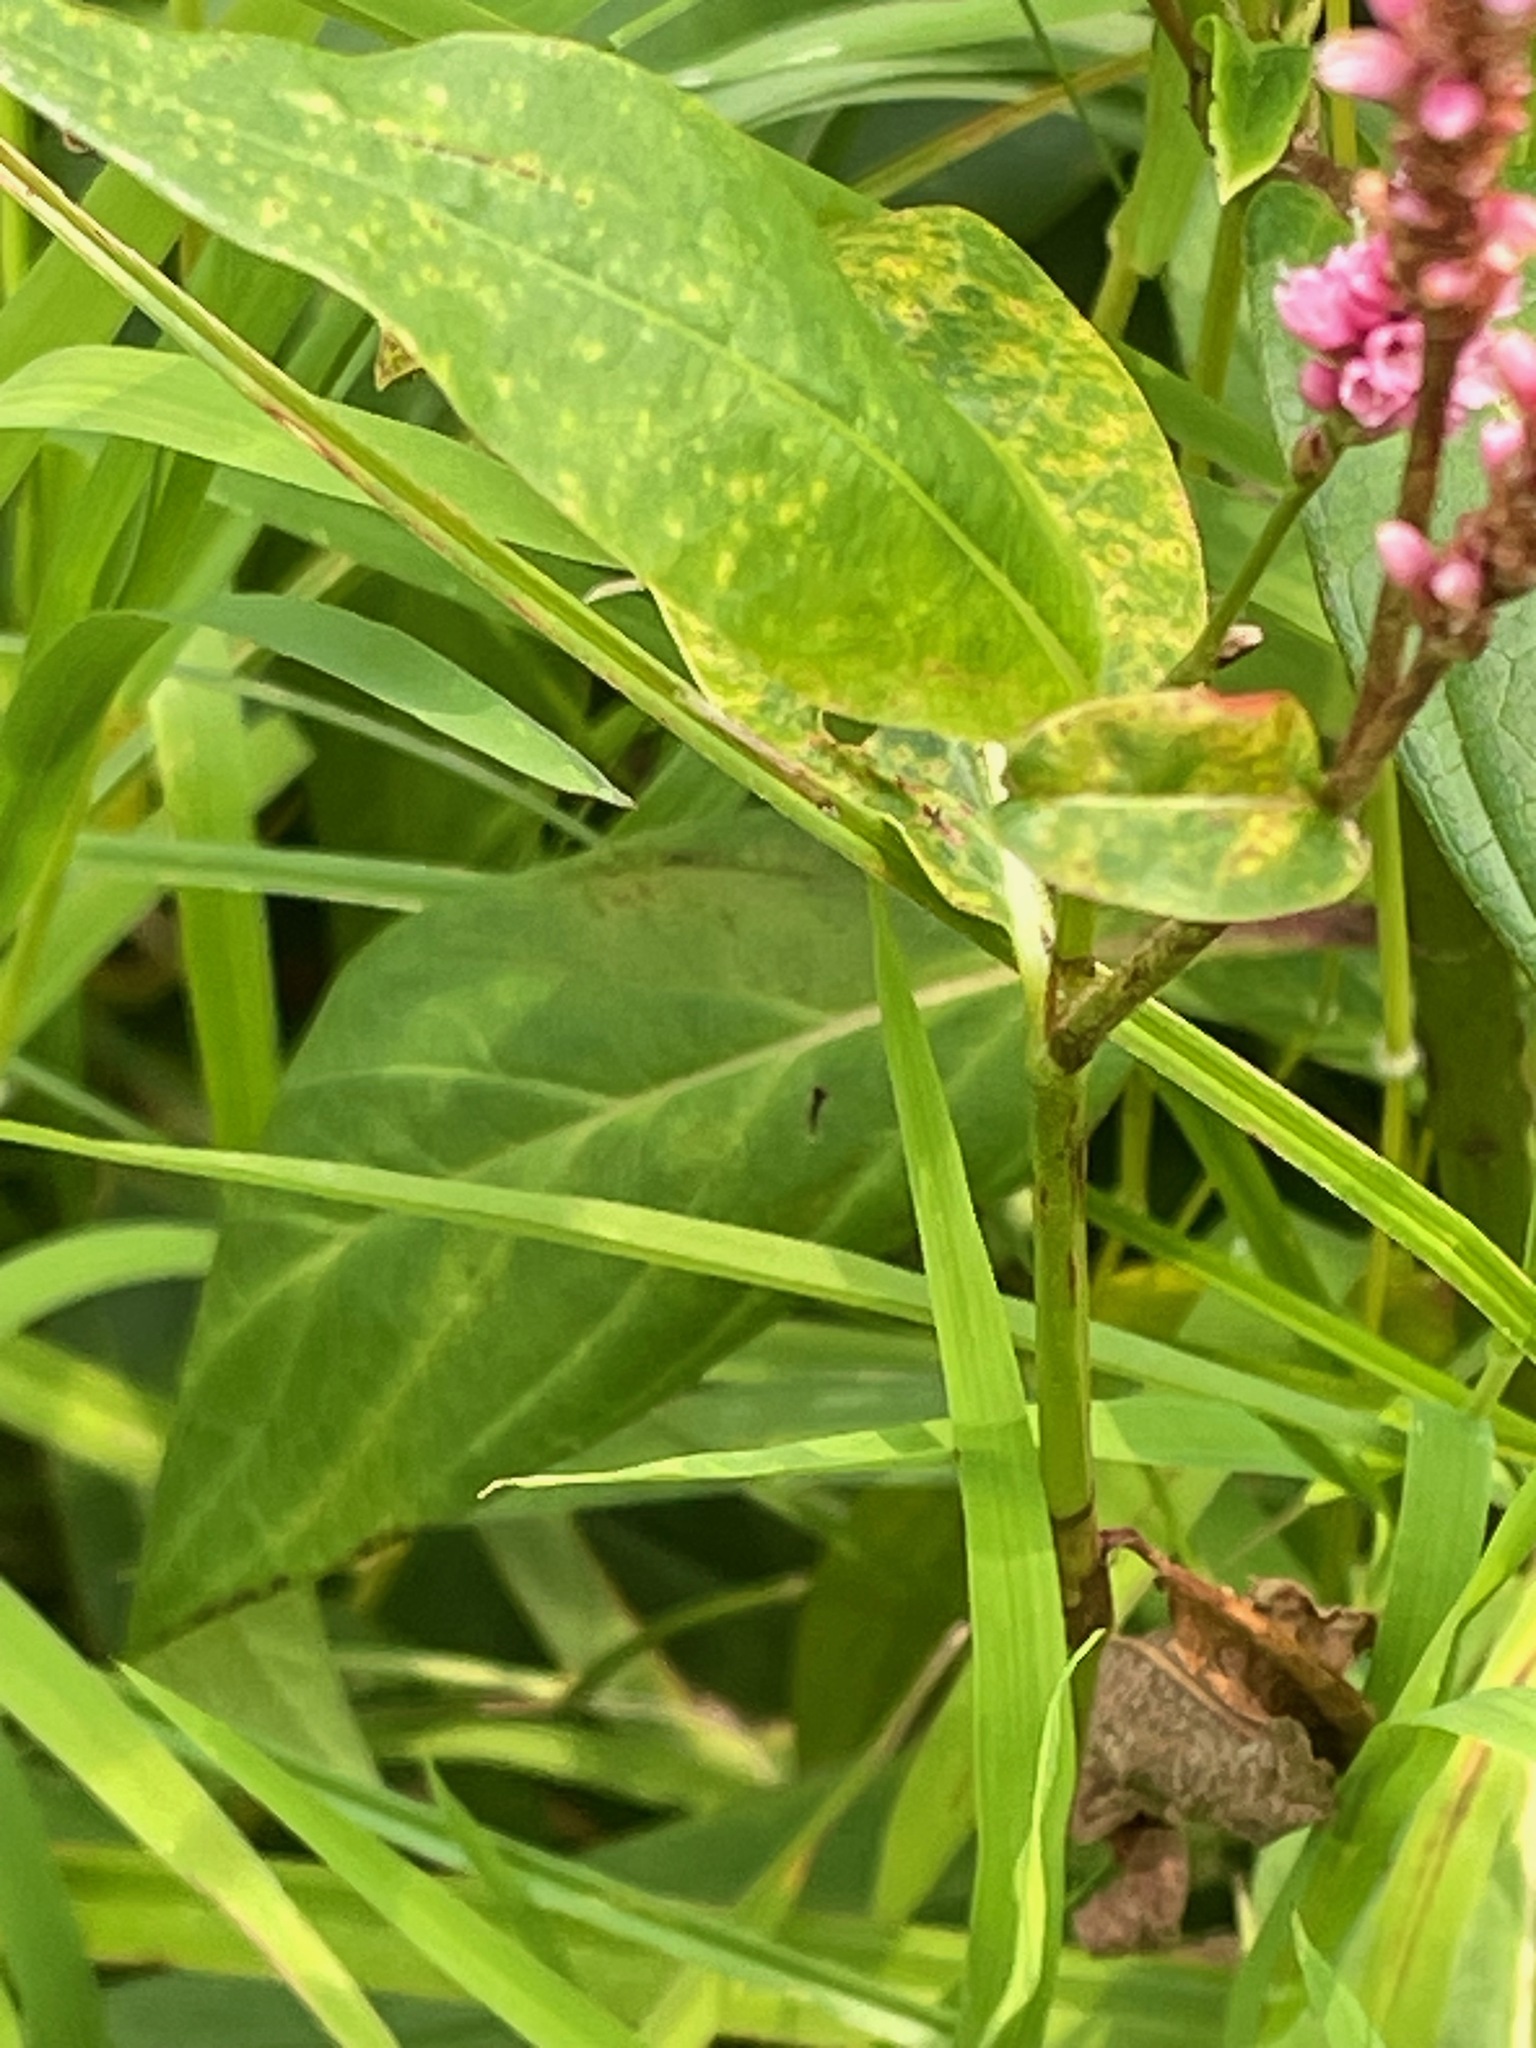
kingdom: Plantae
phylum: Tracheophyta
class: Magnoliopsida
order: Caryophyllales
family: Polygonaceae
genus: Persicaria
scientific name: Persicaria amphibia
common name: Amphibious bistort
